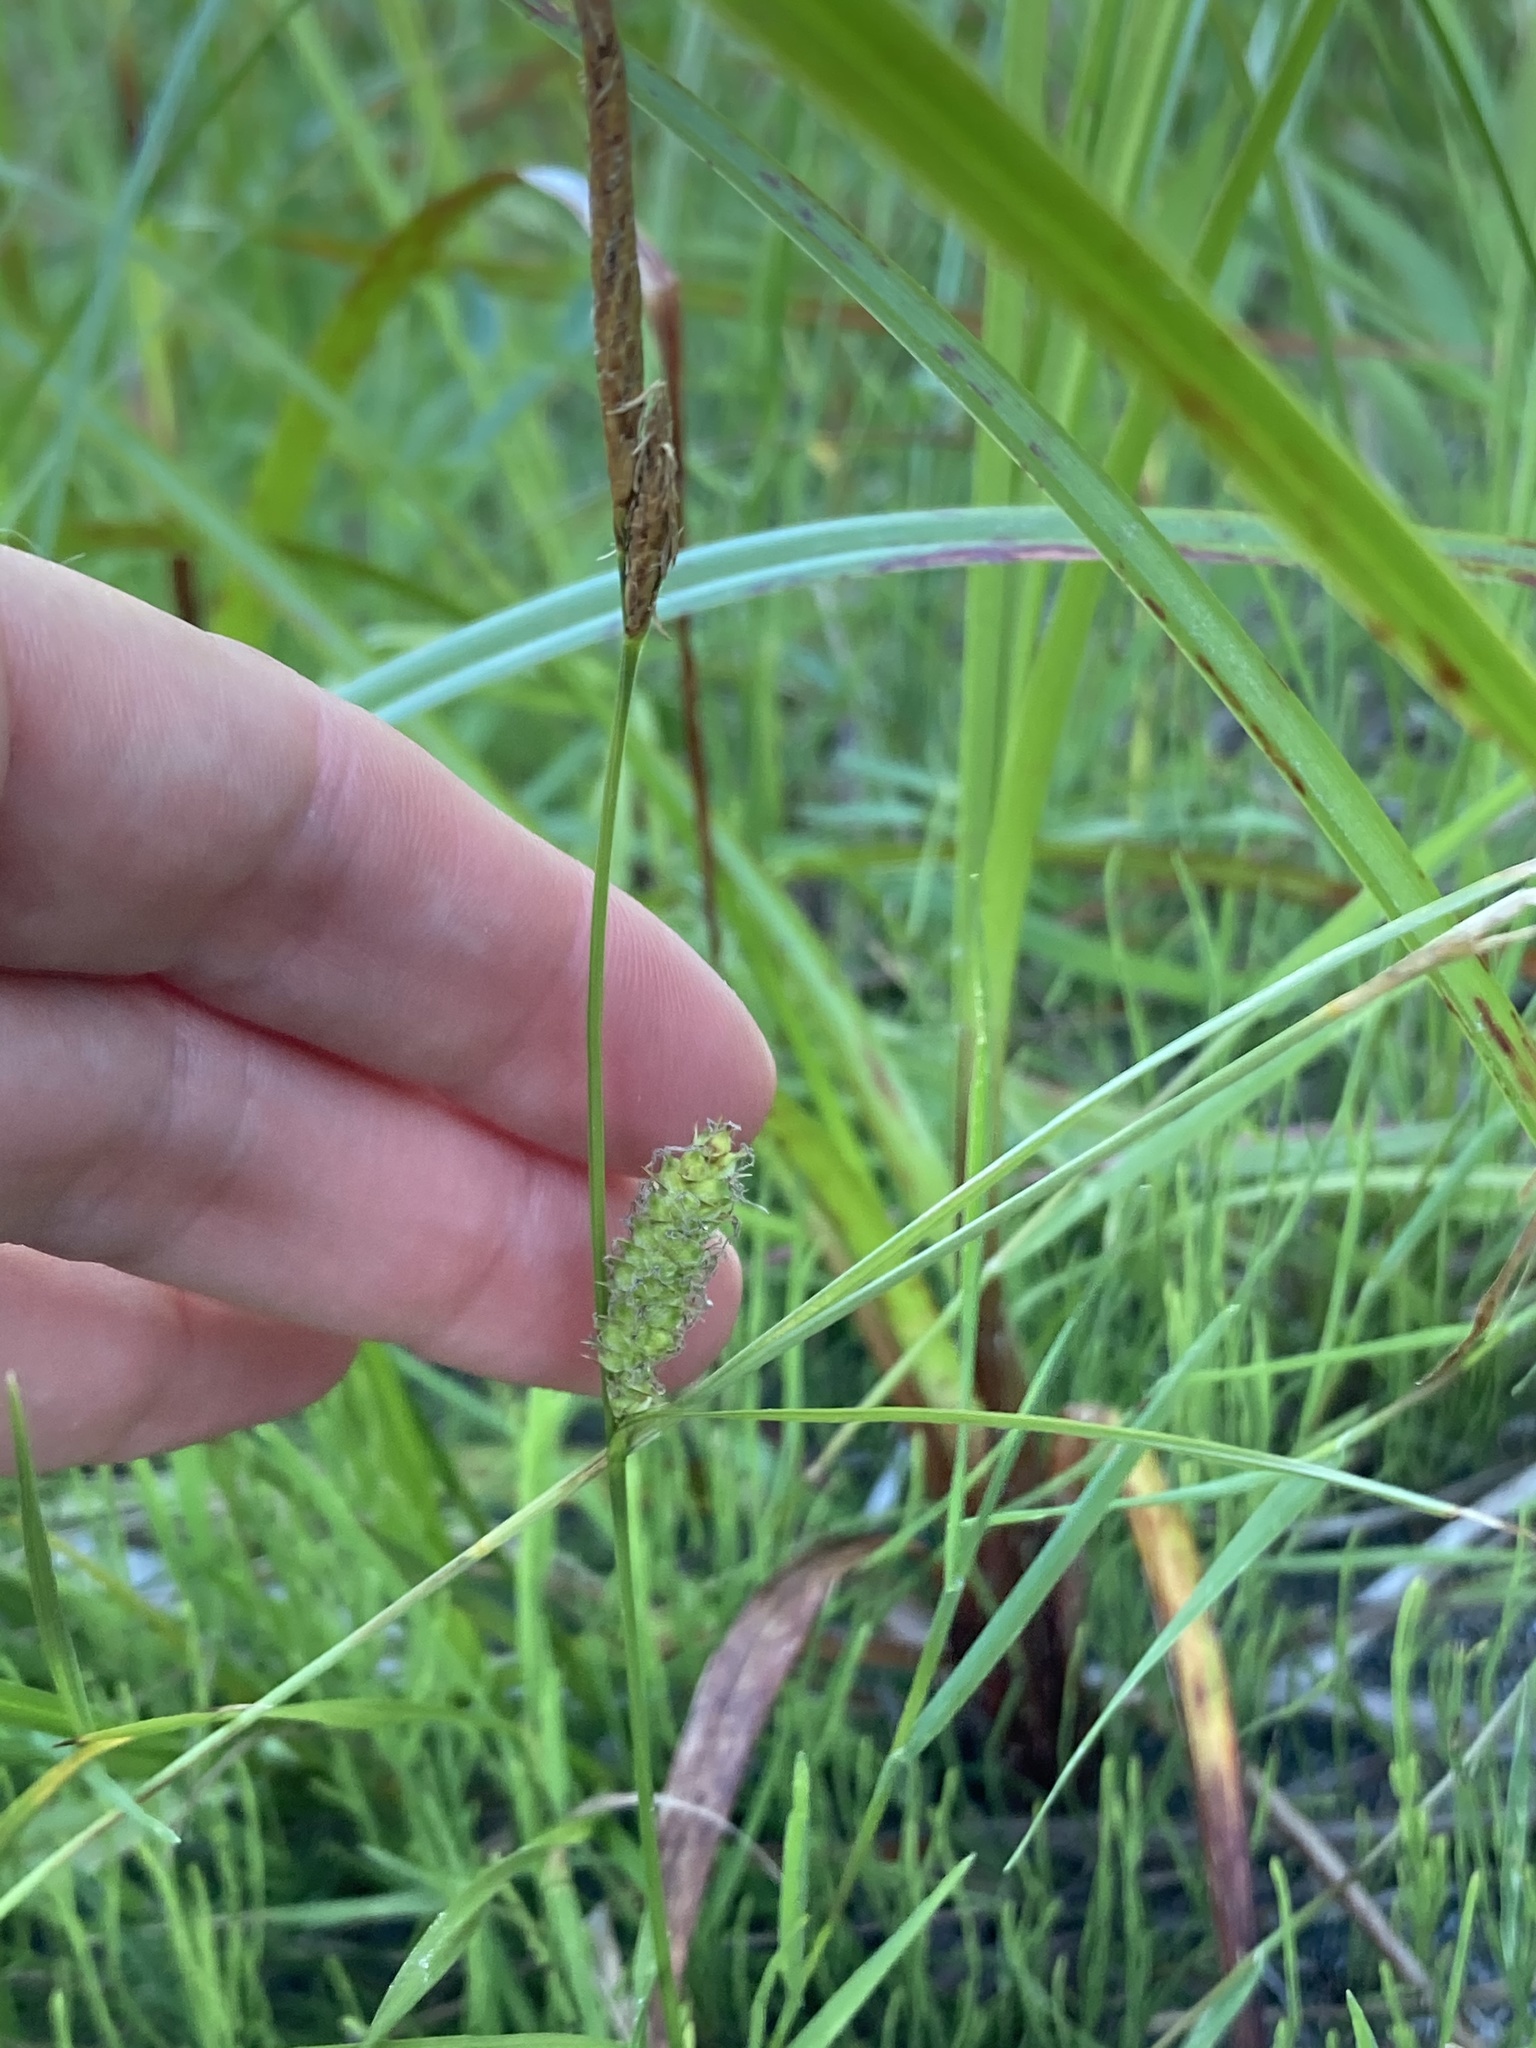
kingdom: Plantae
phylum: Tracheophyta
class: Liliopsida
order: Poales
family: Cyperaceae
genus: Carex
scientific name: Carex pellita
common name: Woolly sedge
